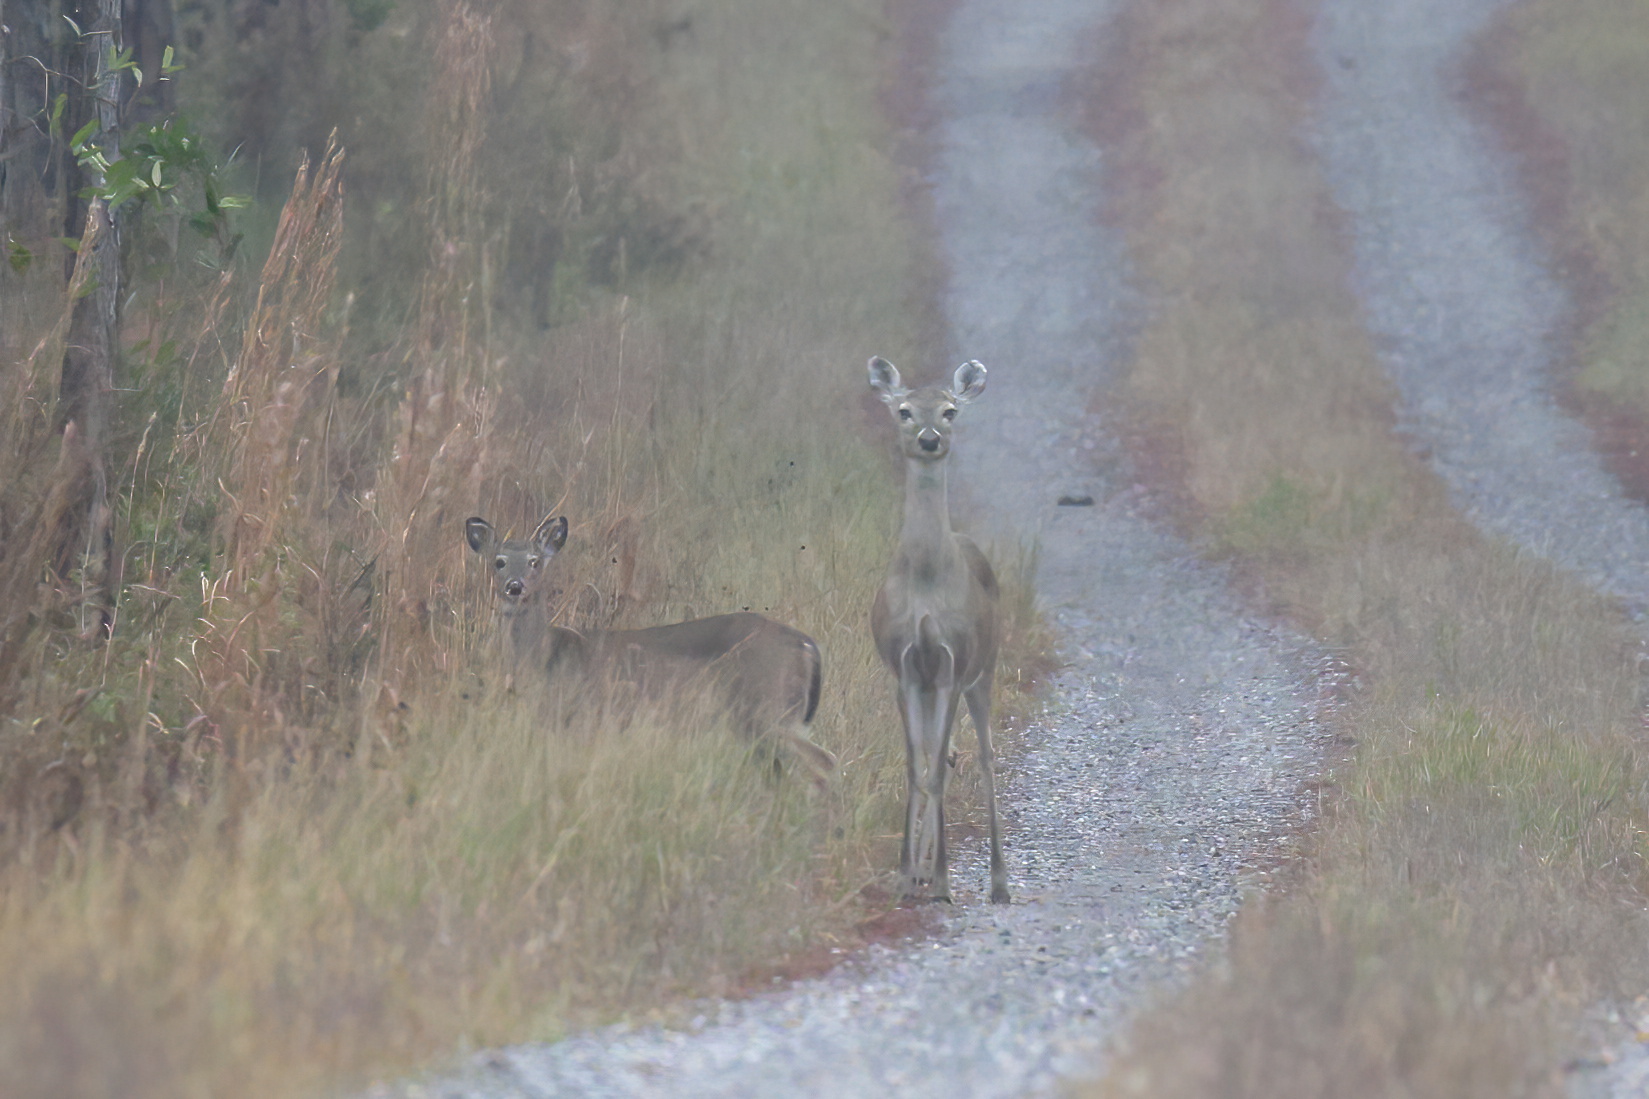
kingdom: Animalia
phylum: Chordata
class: Mammalia
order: Artiodactyla
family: Cervidae
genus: Odocoileus
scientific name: Odocoileus virginianus
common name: White-tailed deer
